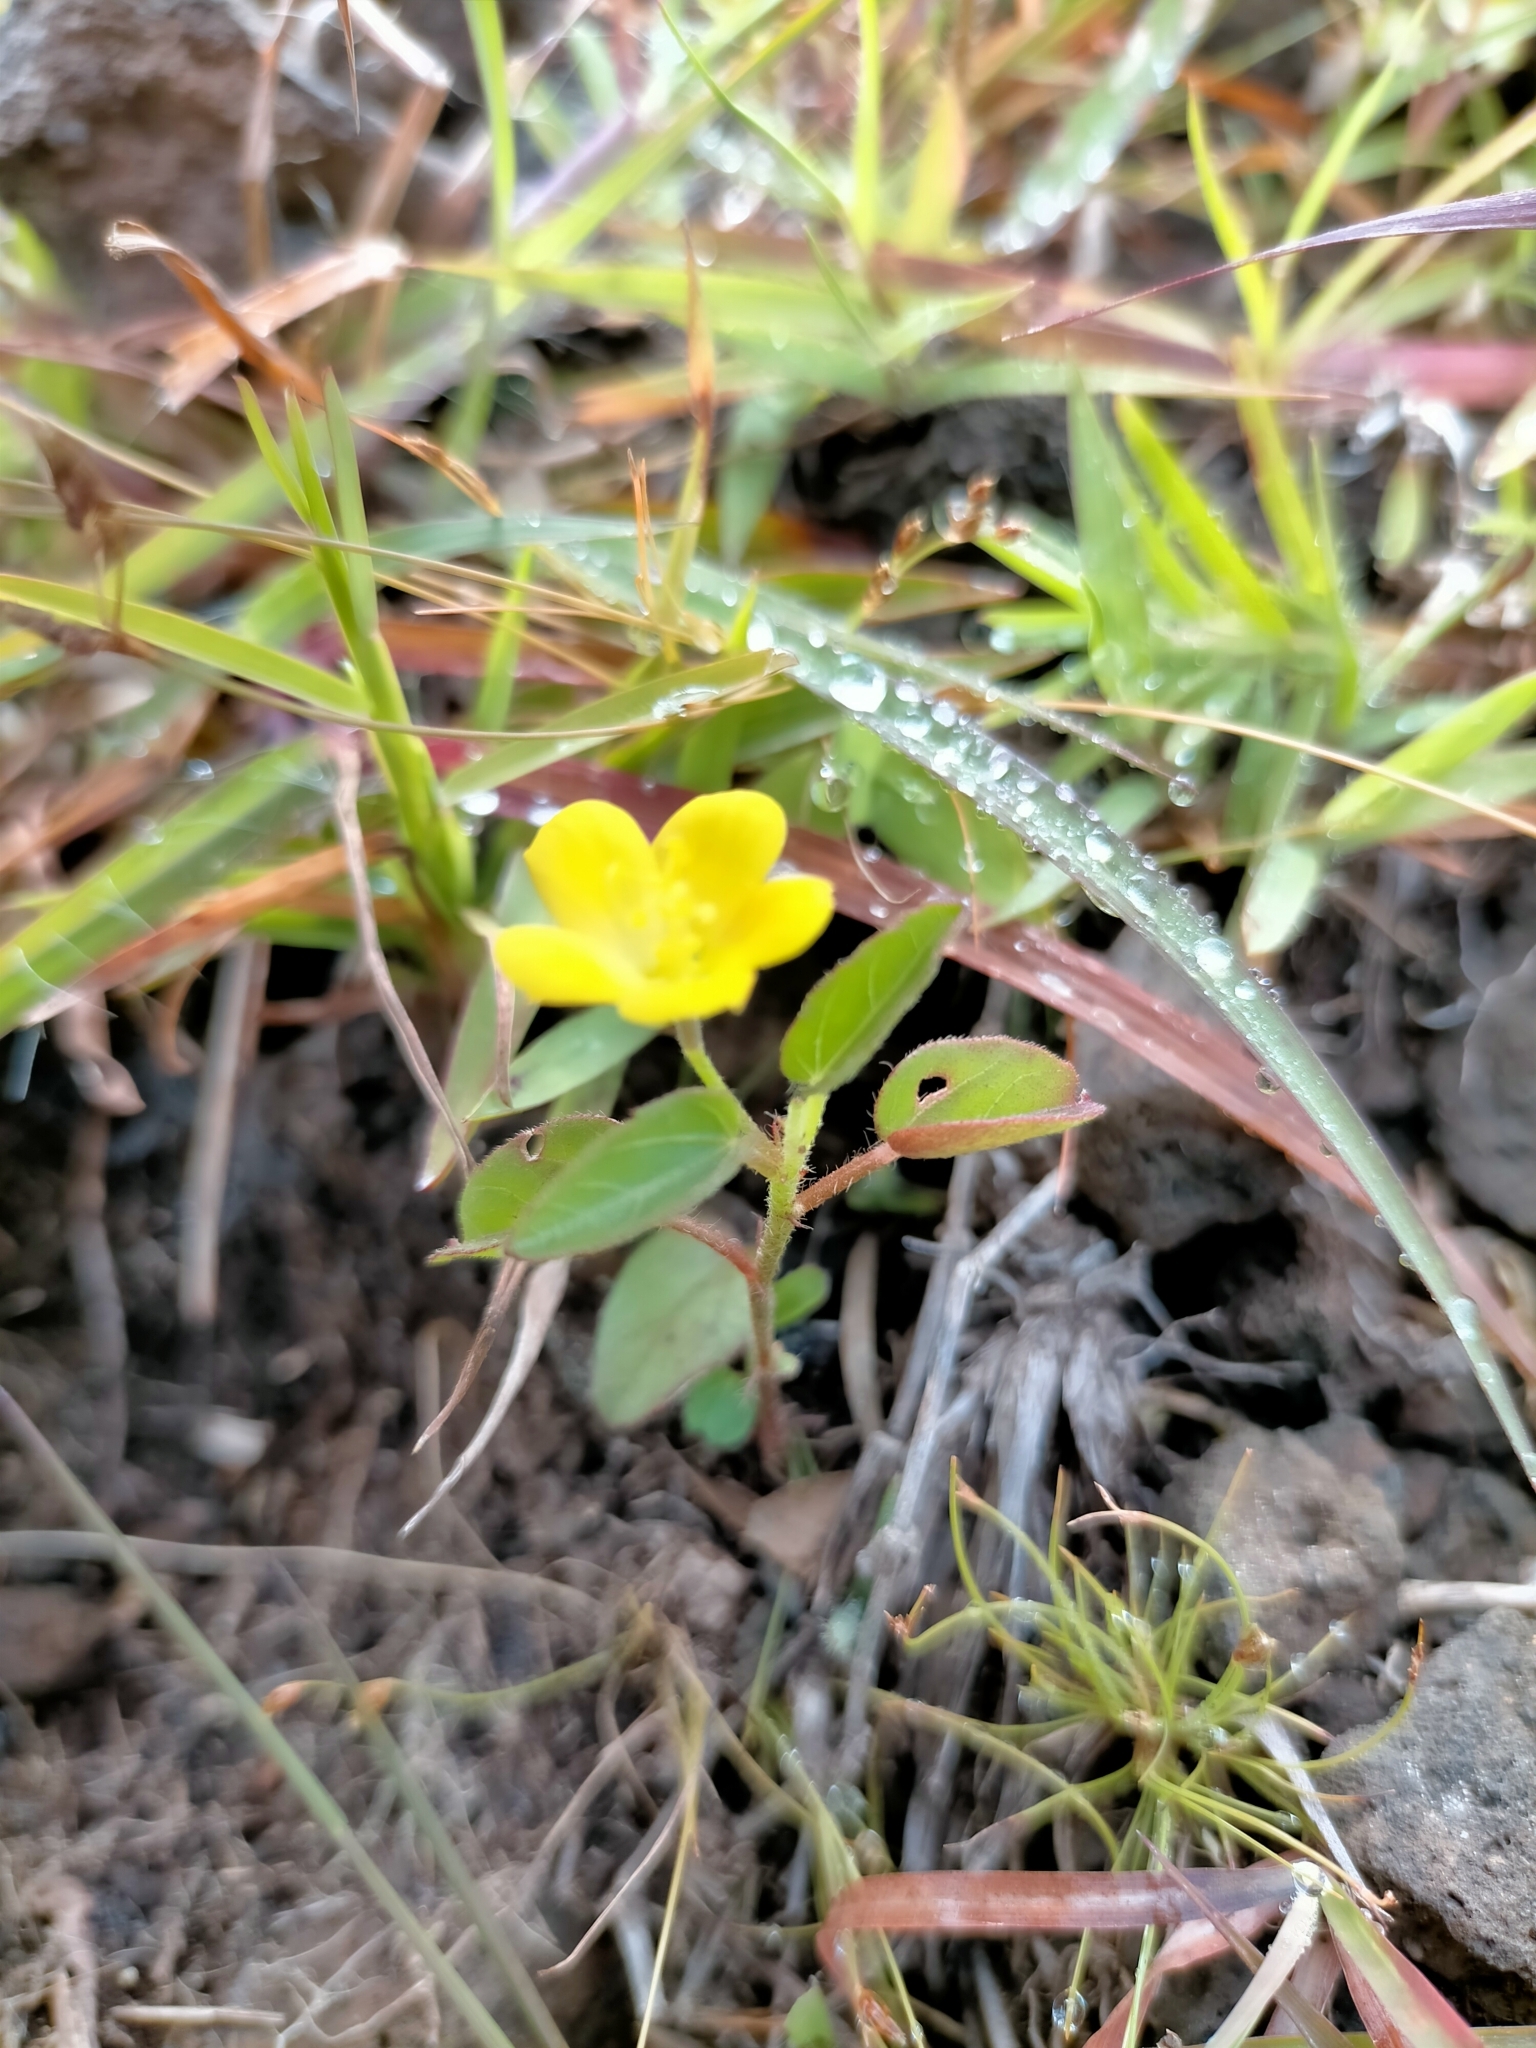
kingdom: Plantae
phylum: Tracheophyta
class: Magnoliopsida
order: Malvales
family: Malvaceae
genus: Hibiscus
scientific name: Hibiscus antanossarum
